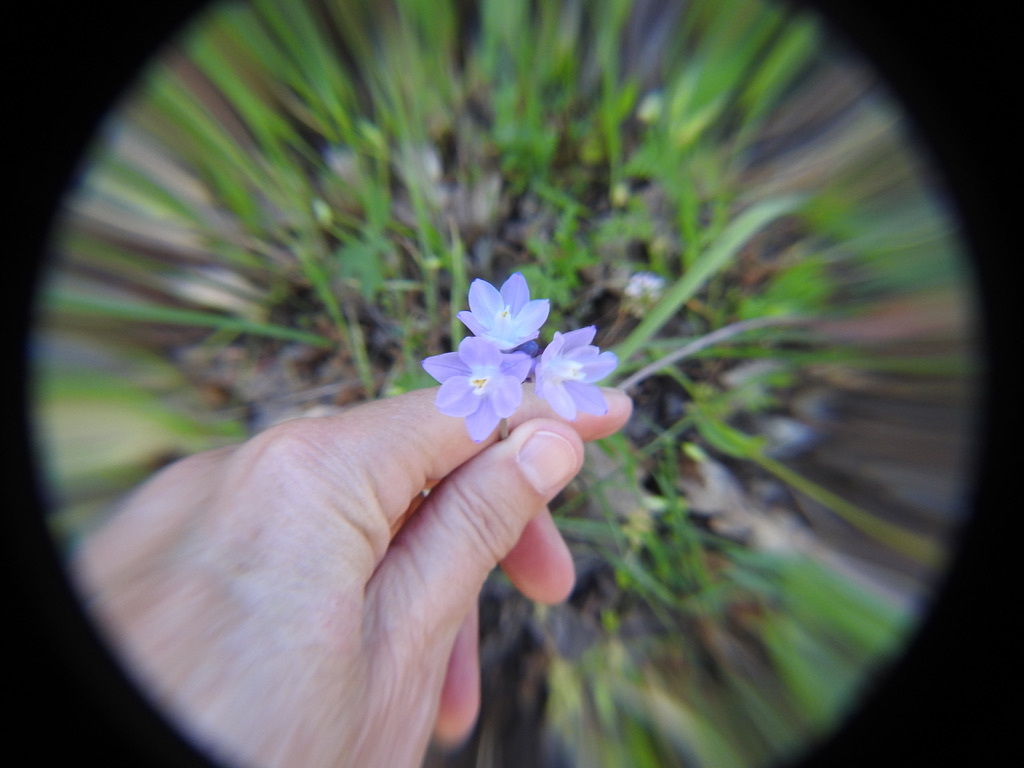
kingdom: Plantae
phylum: Tracheophyta
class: Liliopsida
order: Asparagales
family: Asparagaceae
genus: Dipterostemon
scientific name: Dipterostemon capitatus
